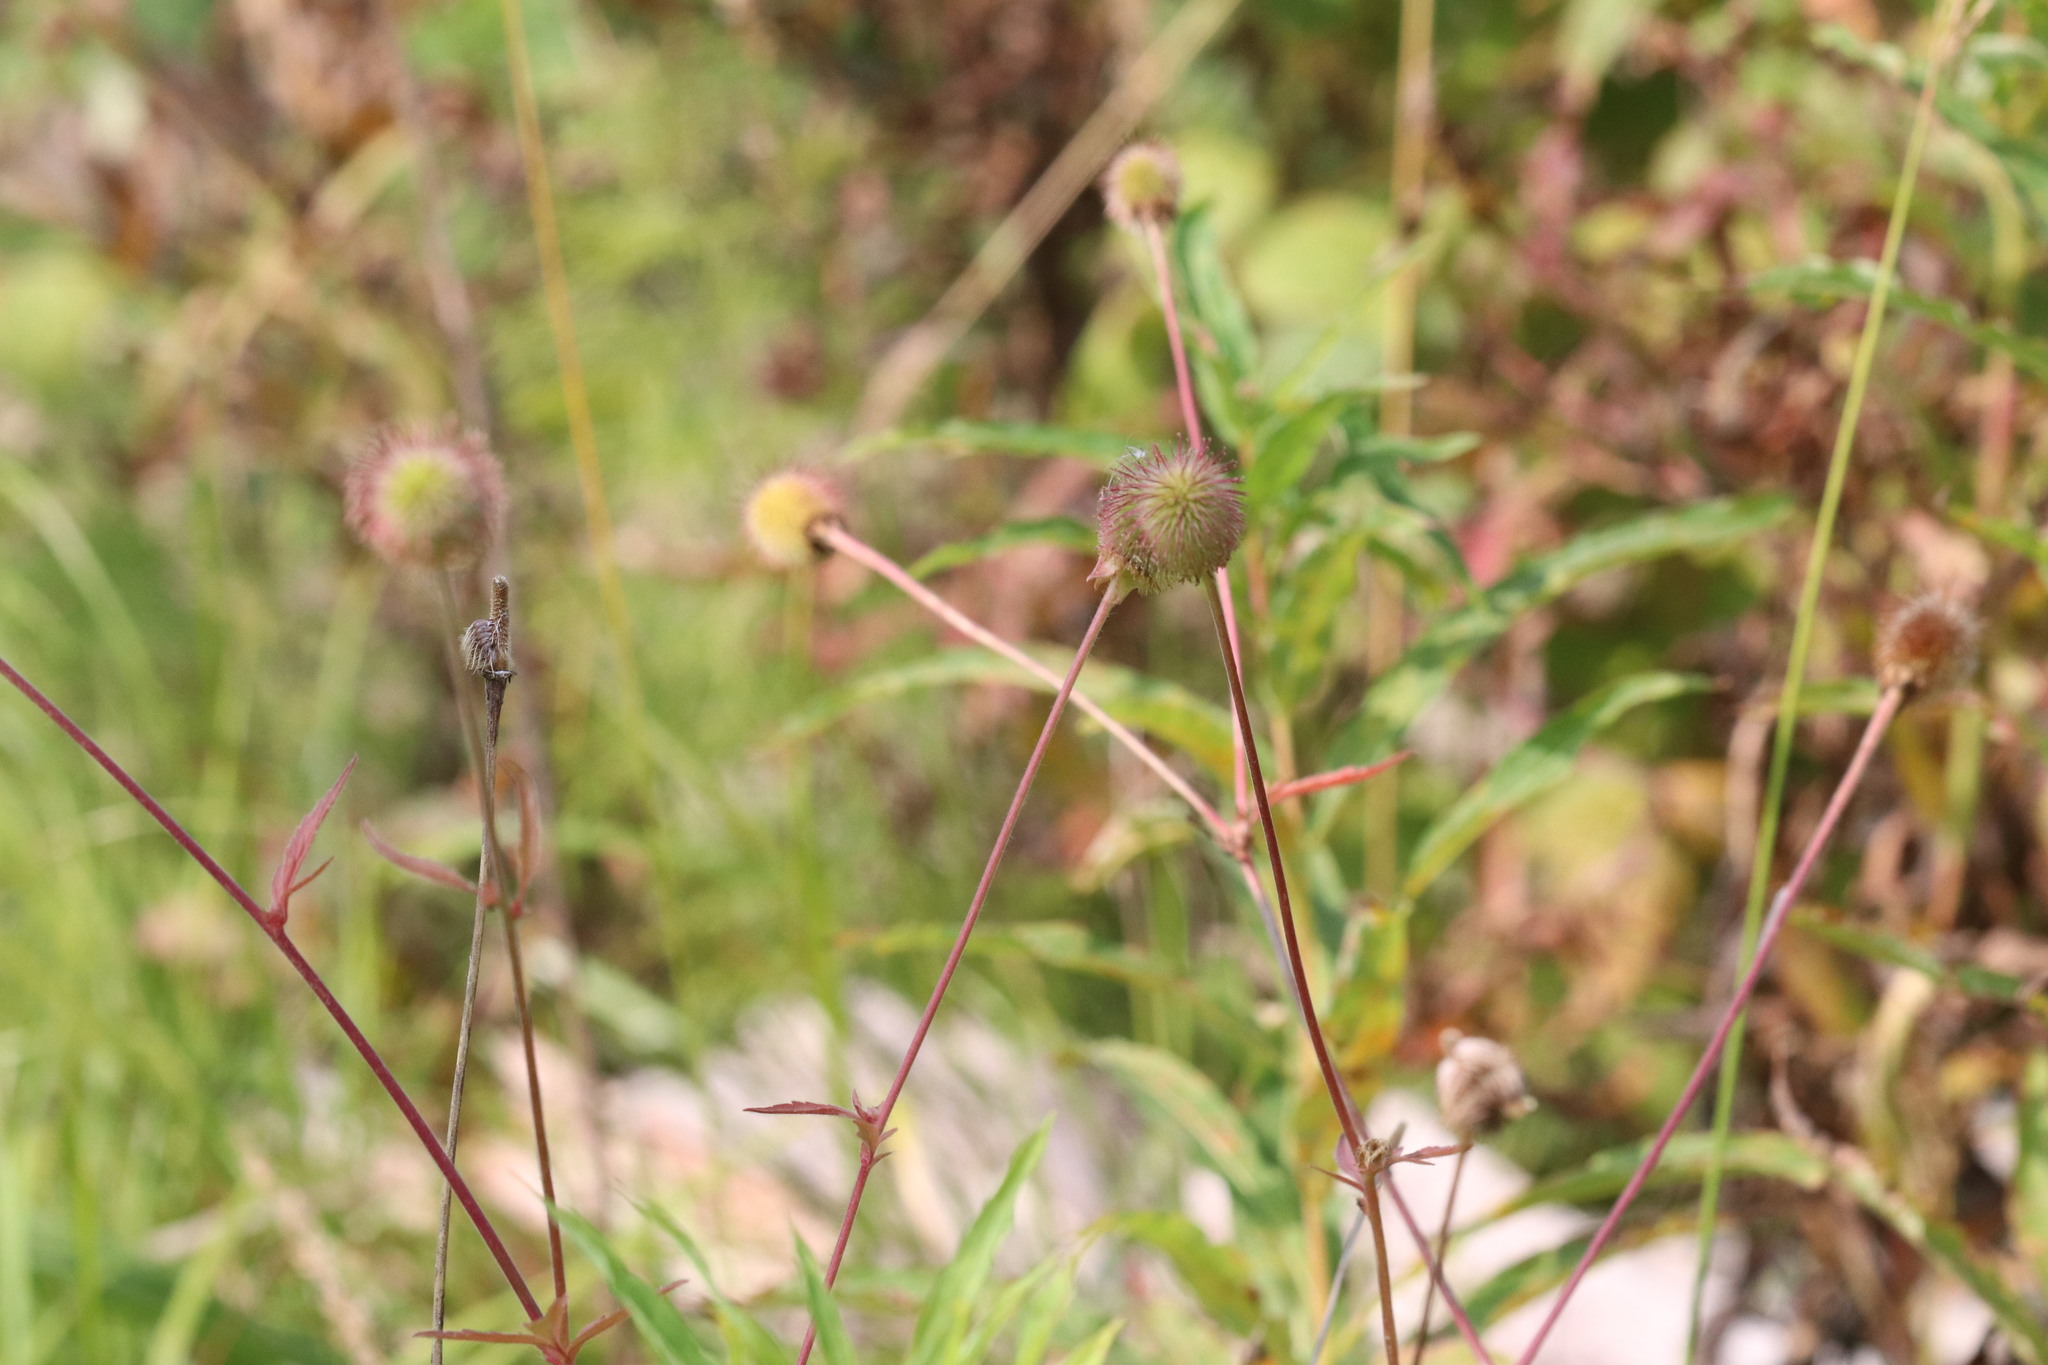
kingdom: Plantae
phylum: Tracheophyta
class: Magnoliopsida
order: Rosales
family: Rosaceae
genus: Geum
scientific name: Geum aleppicum
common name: Yellow avens
